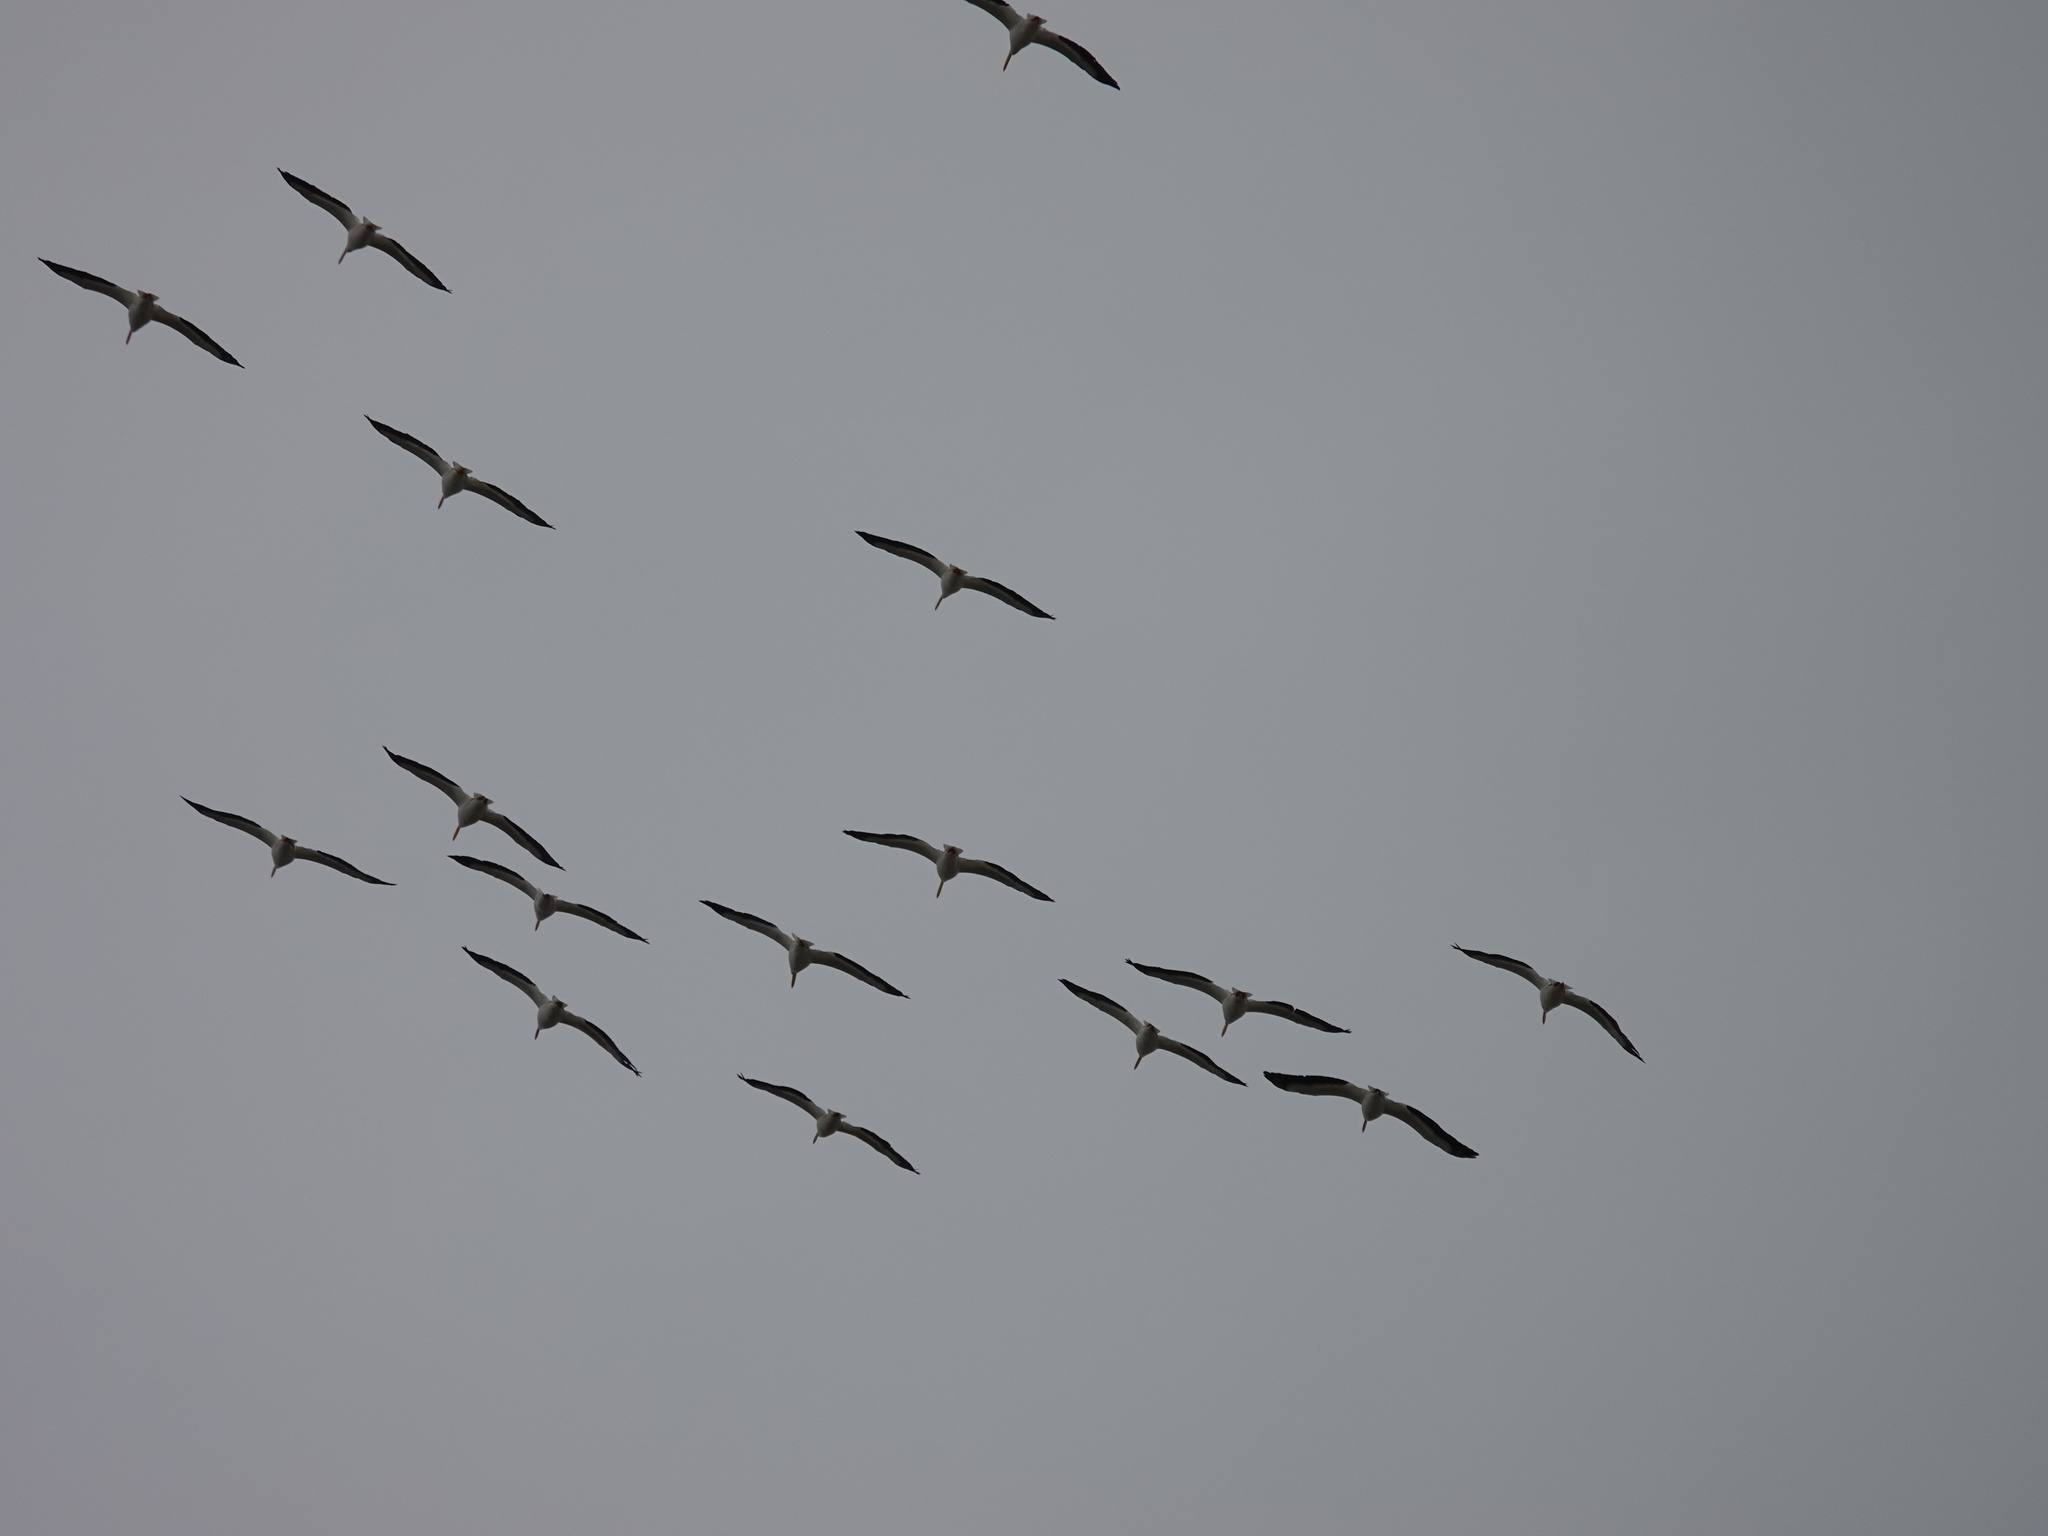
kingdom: Animalia
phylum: Chordata
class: Aves
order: Pelecaniformes
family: Pelecanidae
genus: Pelecanus
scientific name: Pelecanus erythrorhynchos
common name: American white pelican
